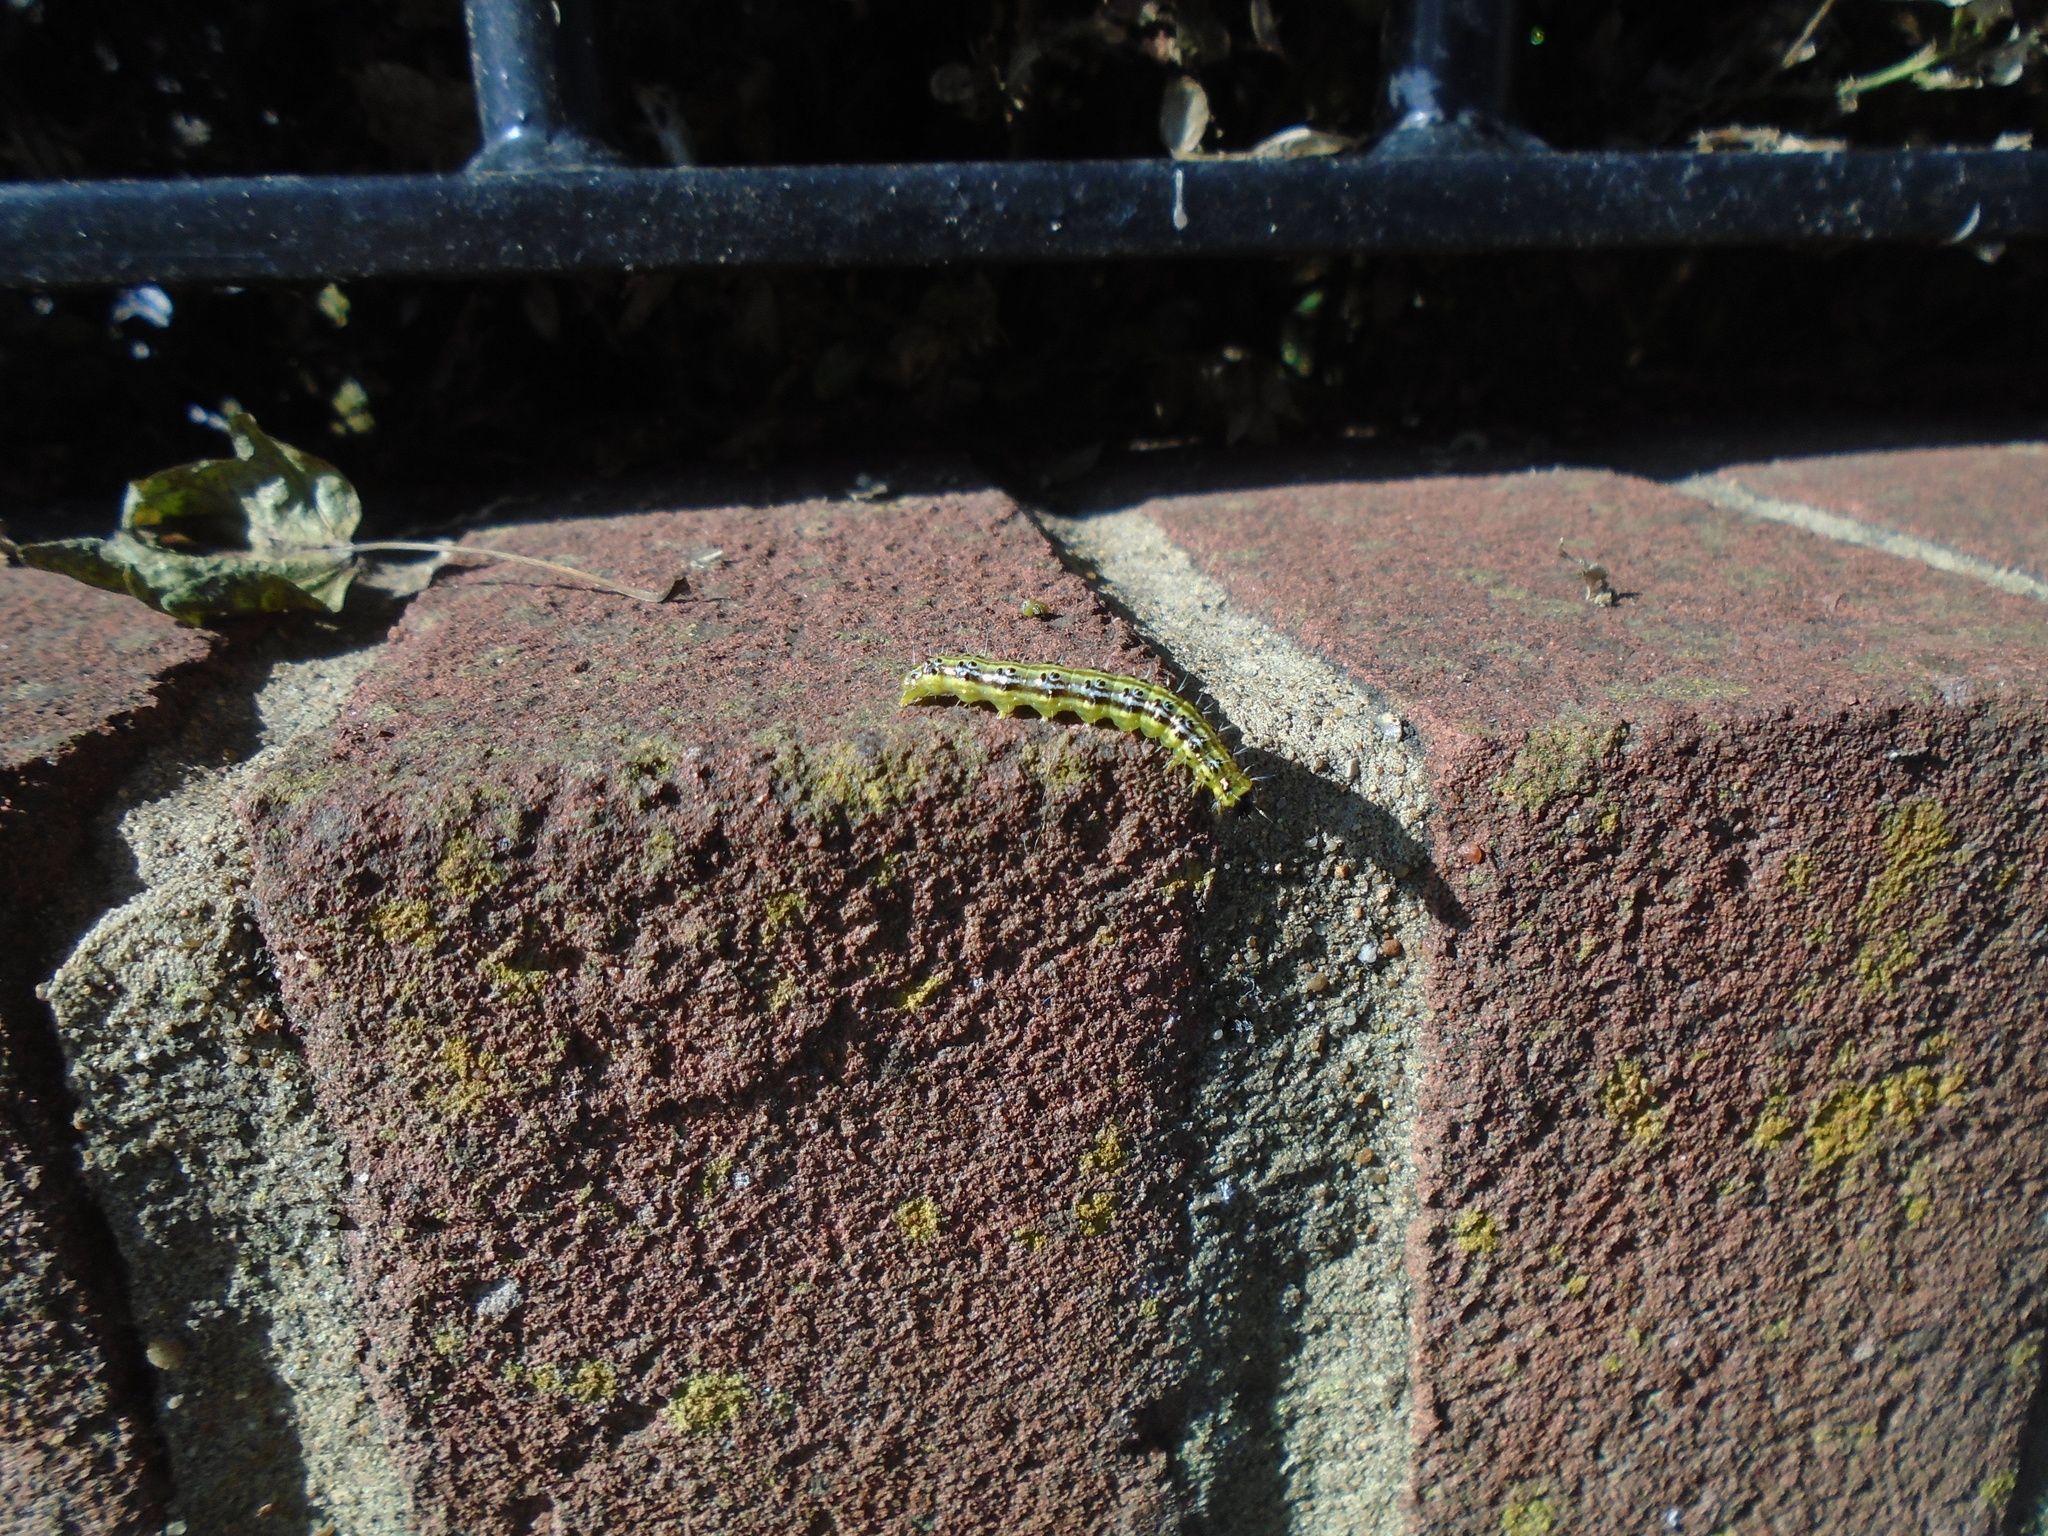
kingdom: Animalia
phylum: Arthropoda
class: Insecta
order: Lepidoptera
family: Crambidae
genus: Cydalima
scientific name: Cydalima perspectalis
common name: Box tree moth
